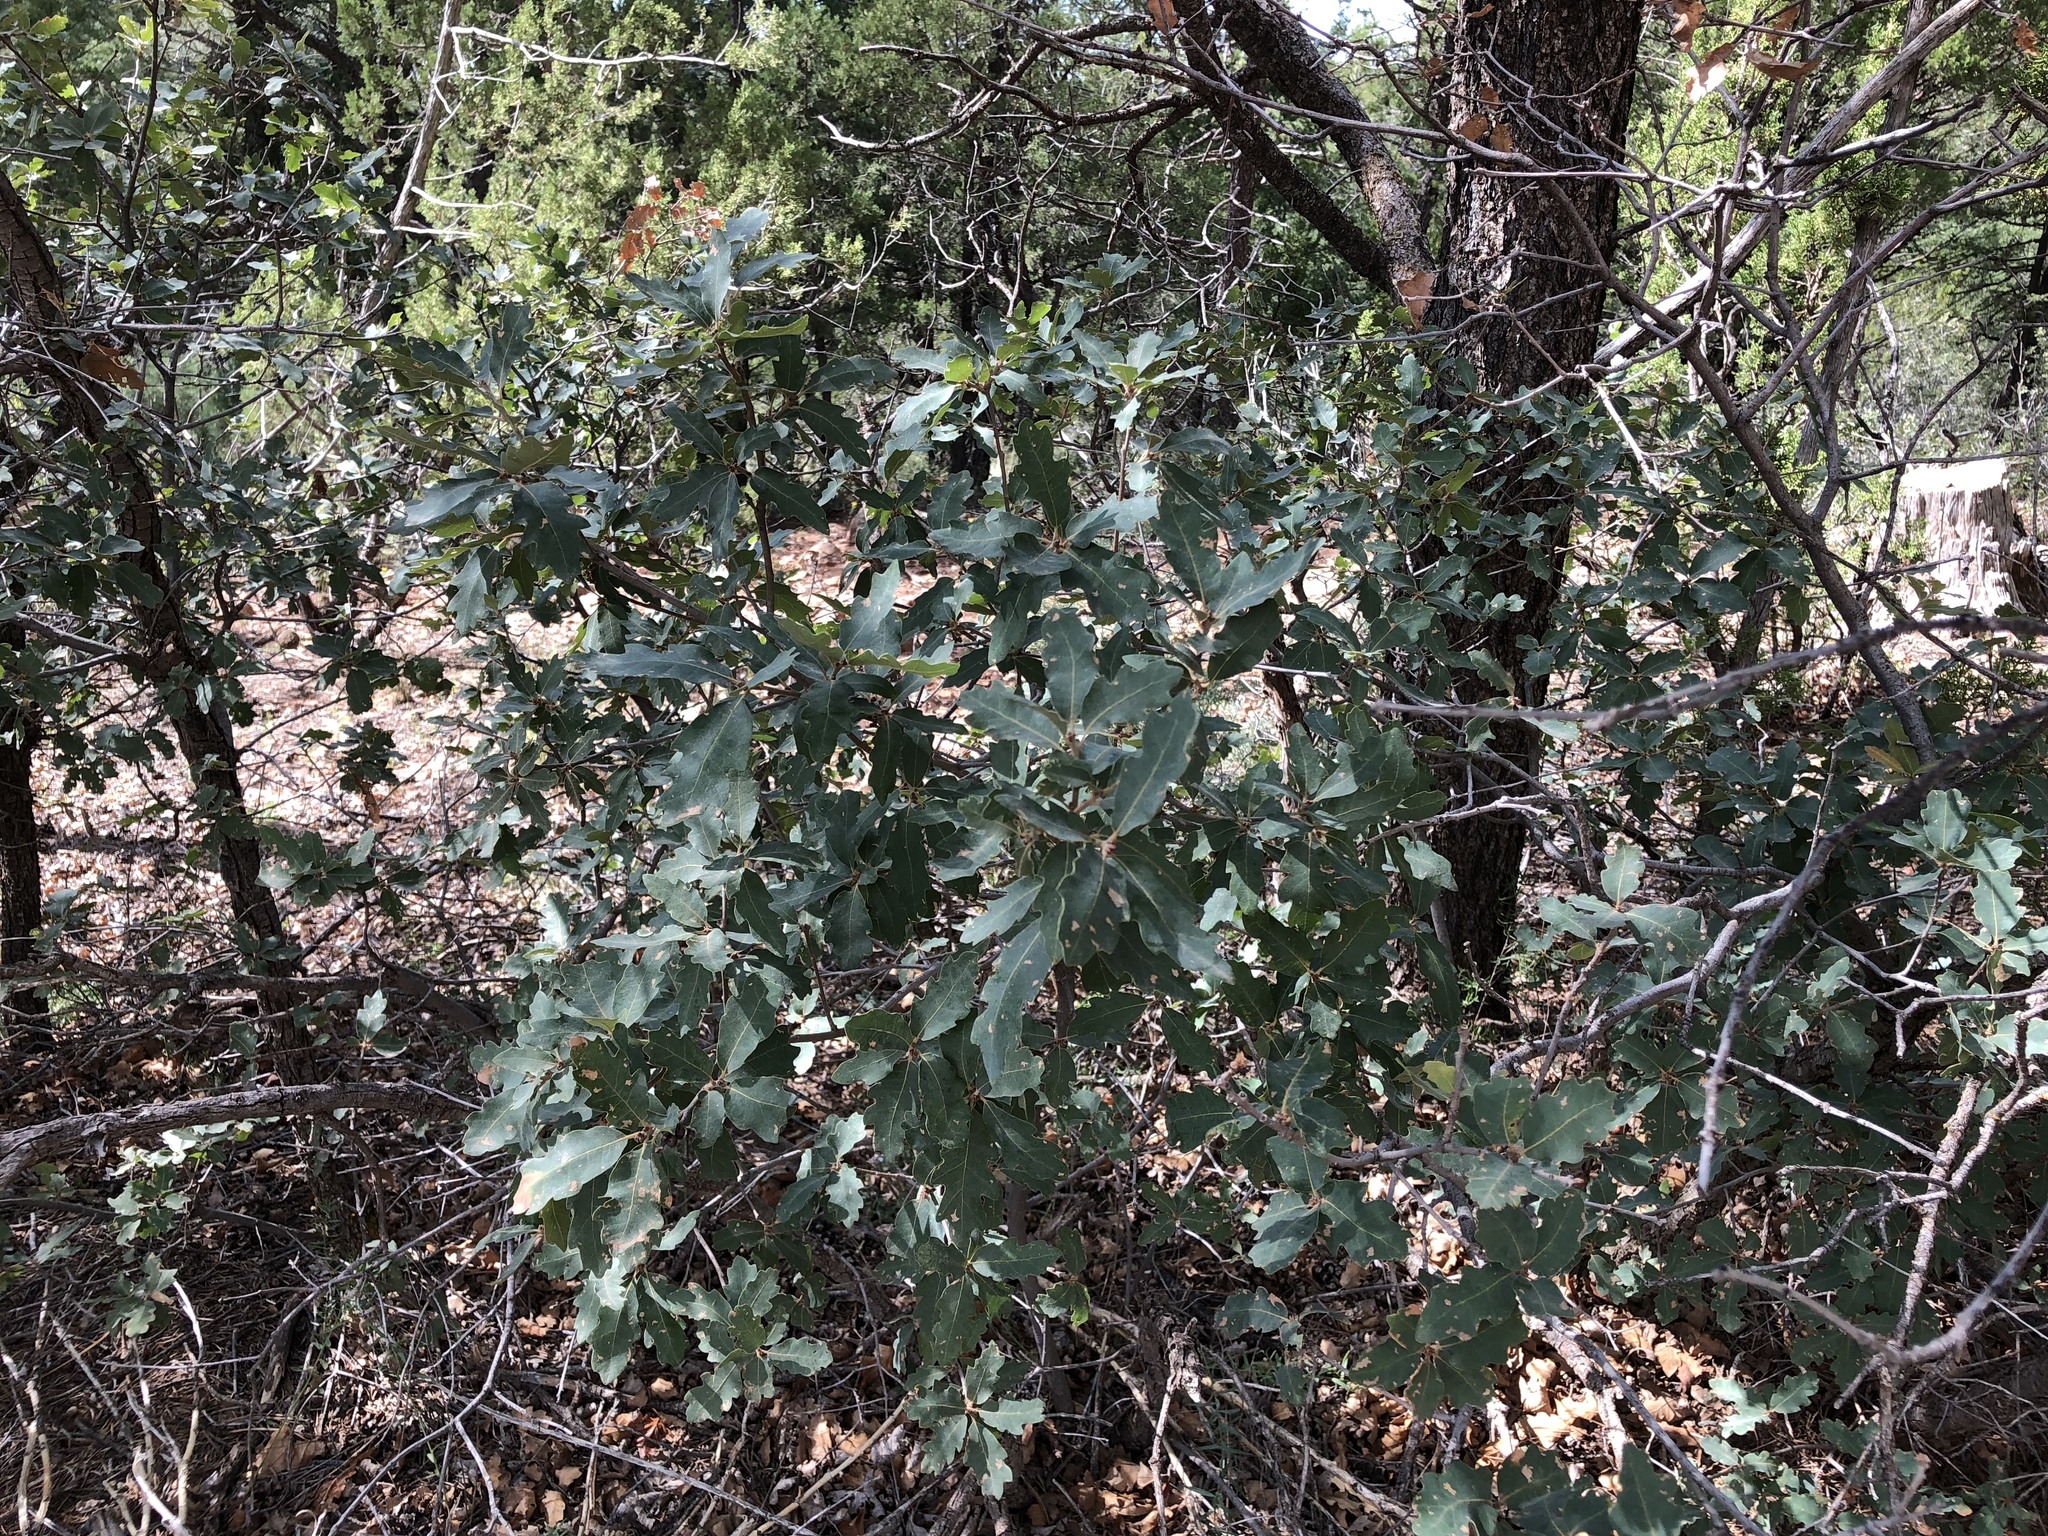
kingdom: Plantae
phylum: Tracheophyta
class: Magnoliopsida
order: Fagales
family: Fagaceae
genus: Quercus
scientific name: Quercus undulata
